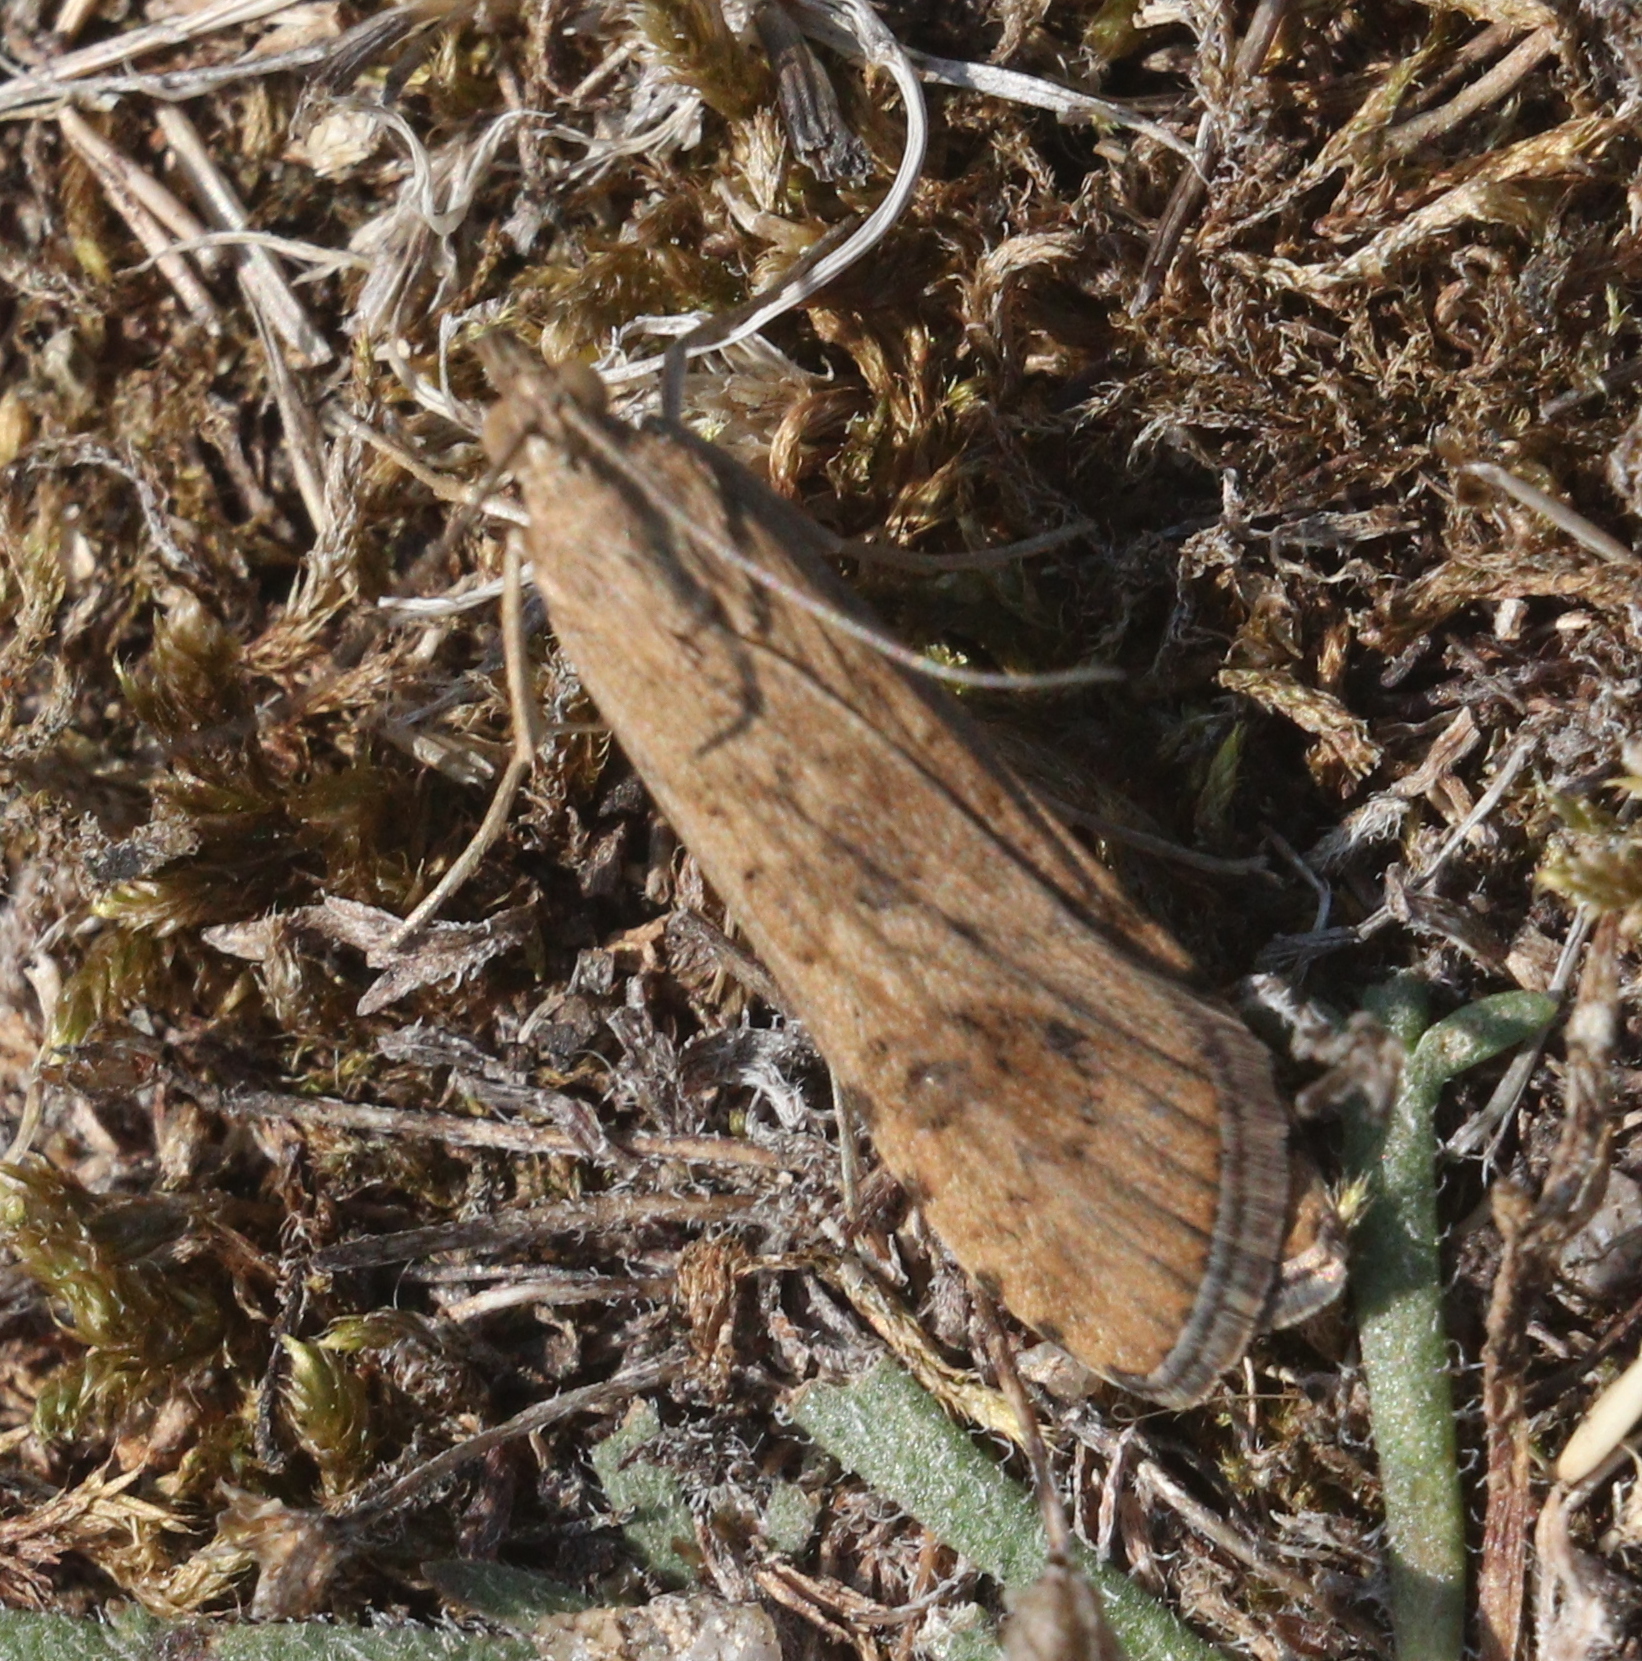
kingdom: Animalia
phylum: Arthropoda
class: Insecta
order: Lepidoptera
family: Crambidae
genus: Nomophila
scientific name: Nomophila noctuella
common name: Rush veneer
